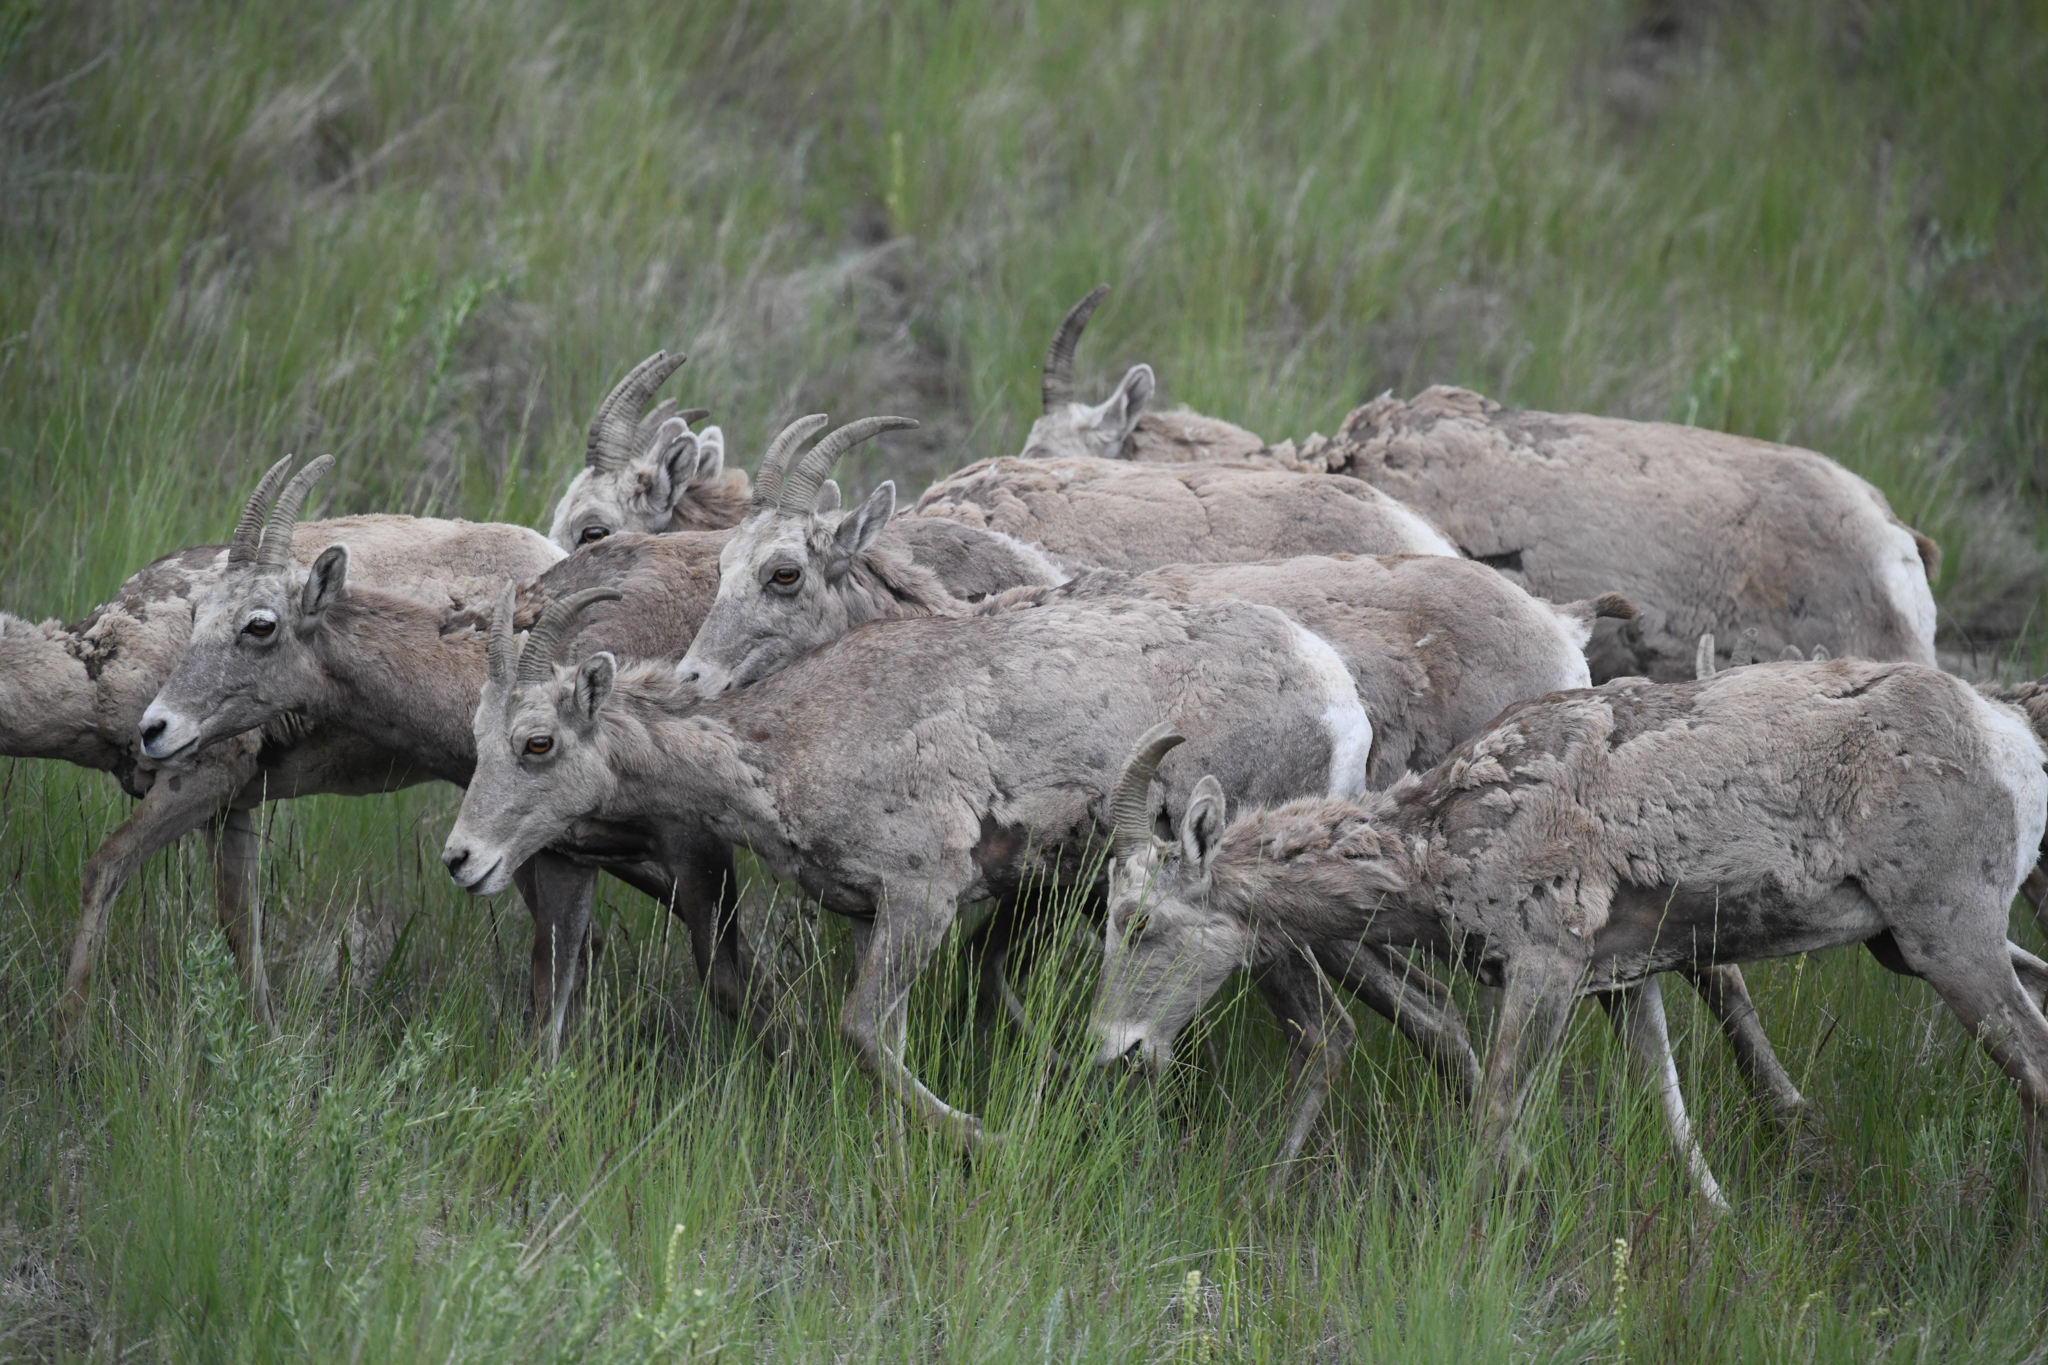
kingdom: Animalia
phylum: Chordata
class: Mammalia
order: Artiodactyla
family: Bovidae
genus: Ovis
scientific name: Ovis canadensis
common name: Bighorn sheep
